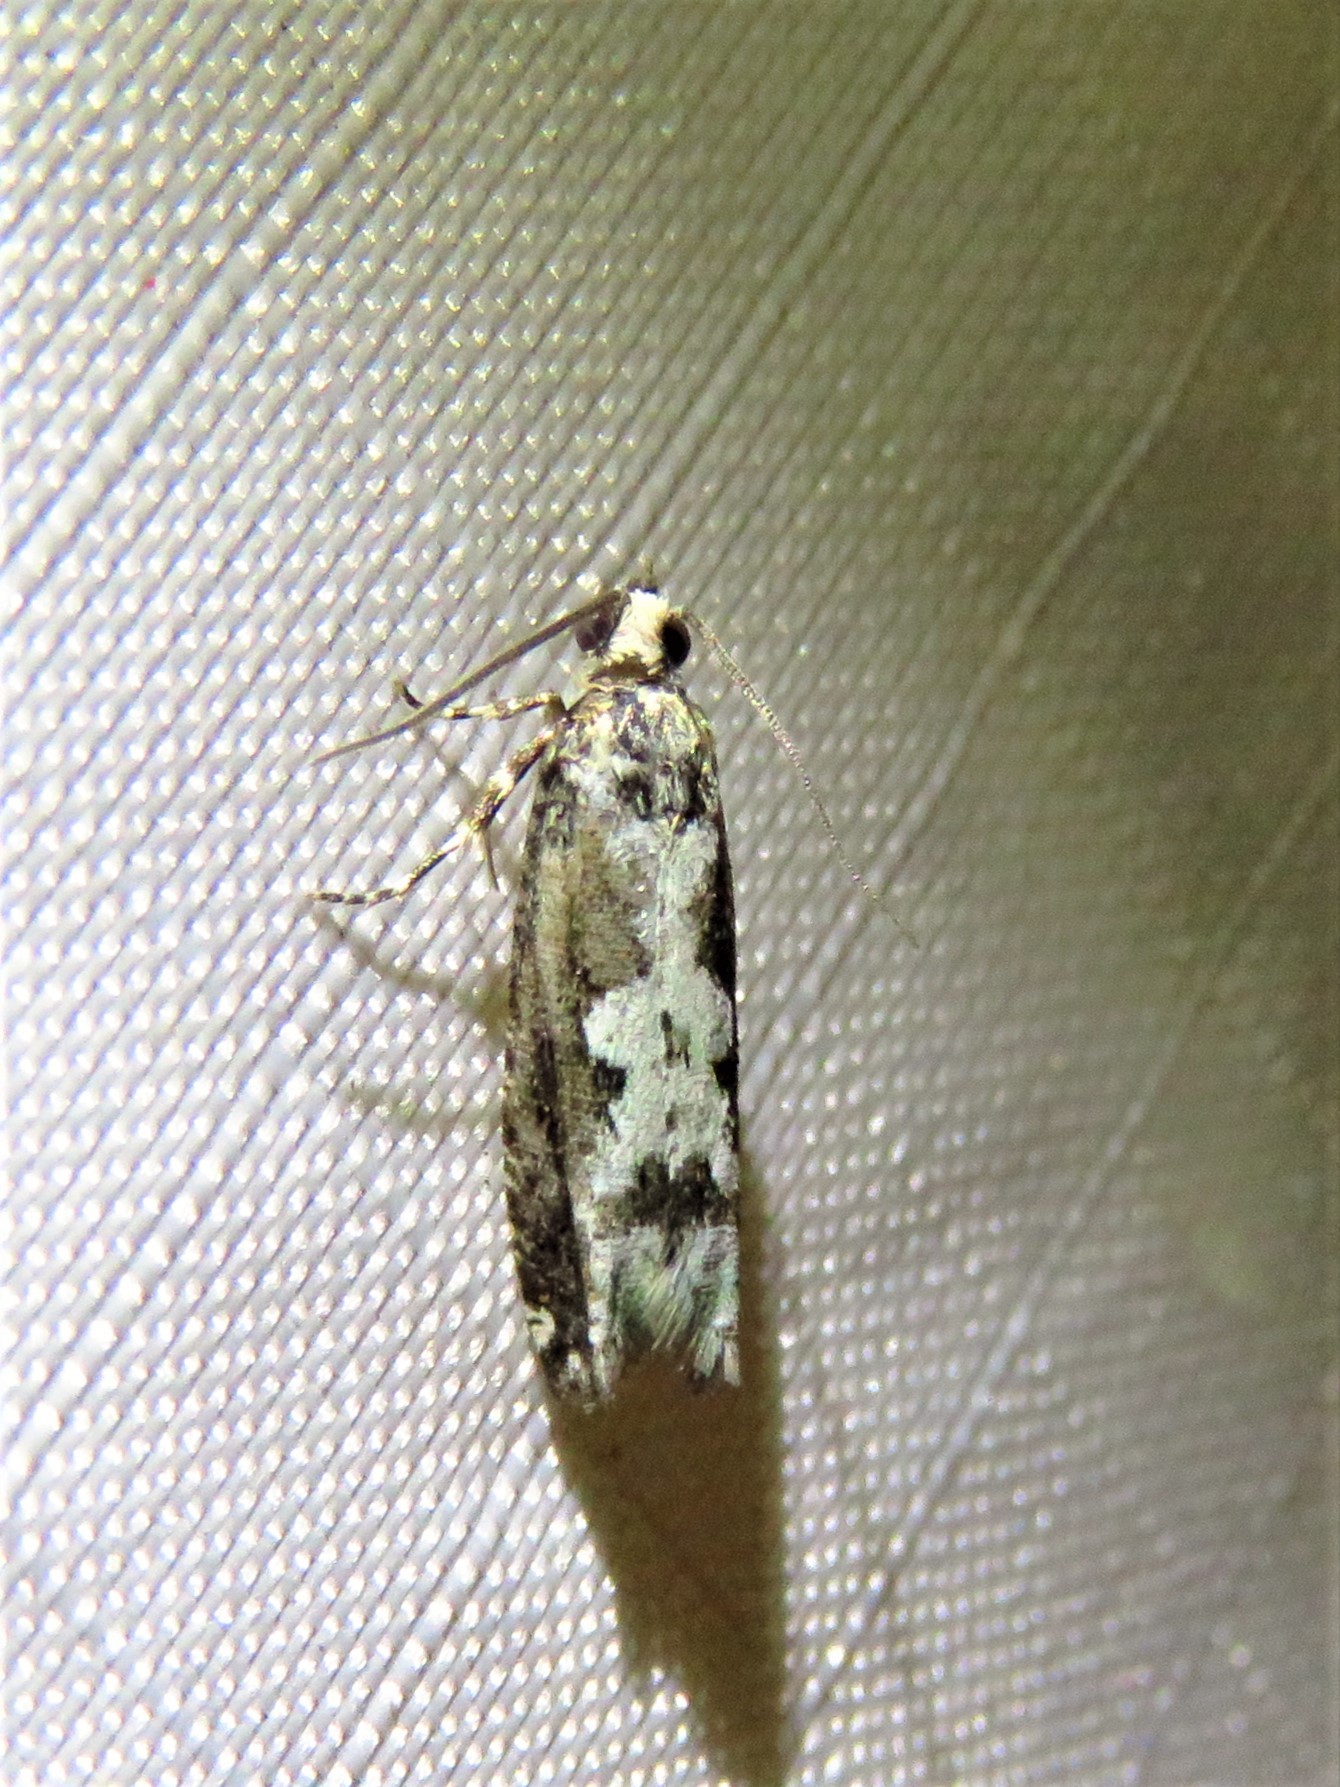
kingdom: Animalia
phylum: Arthropoda
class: Insecta
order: Lepidoptera
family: Tortricidae
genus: Chimoptesis
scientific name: Chimoptesis pennsylvaniana
